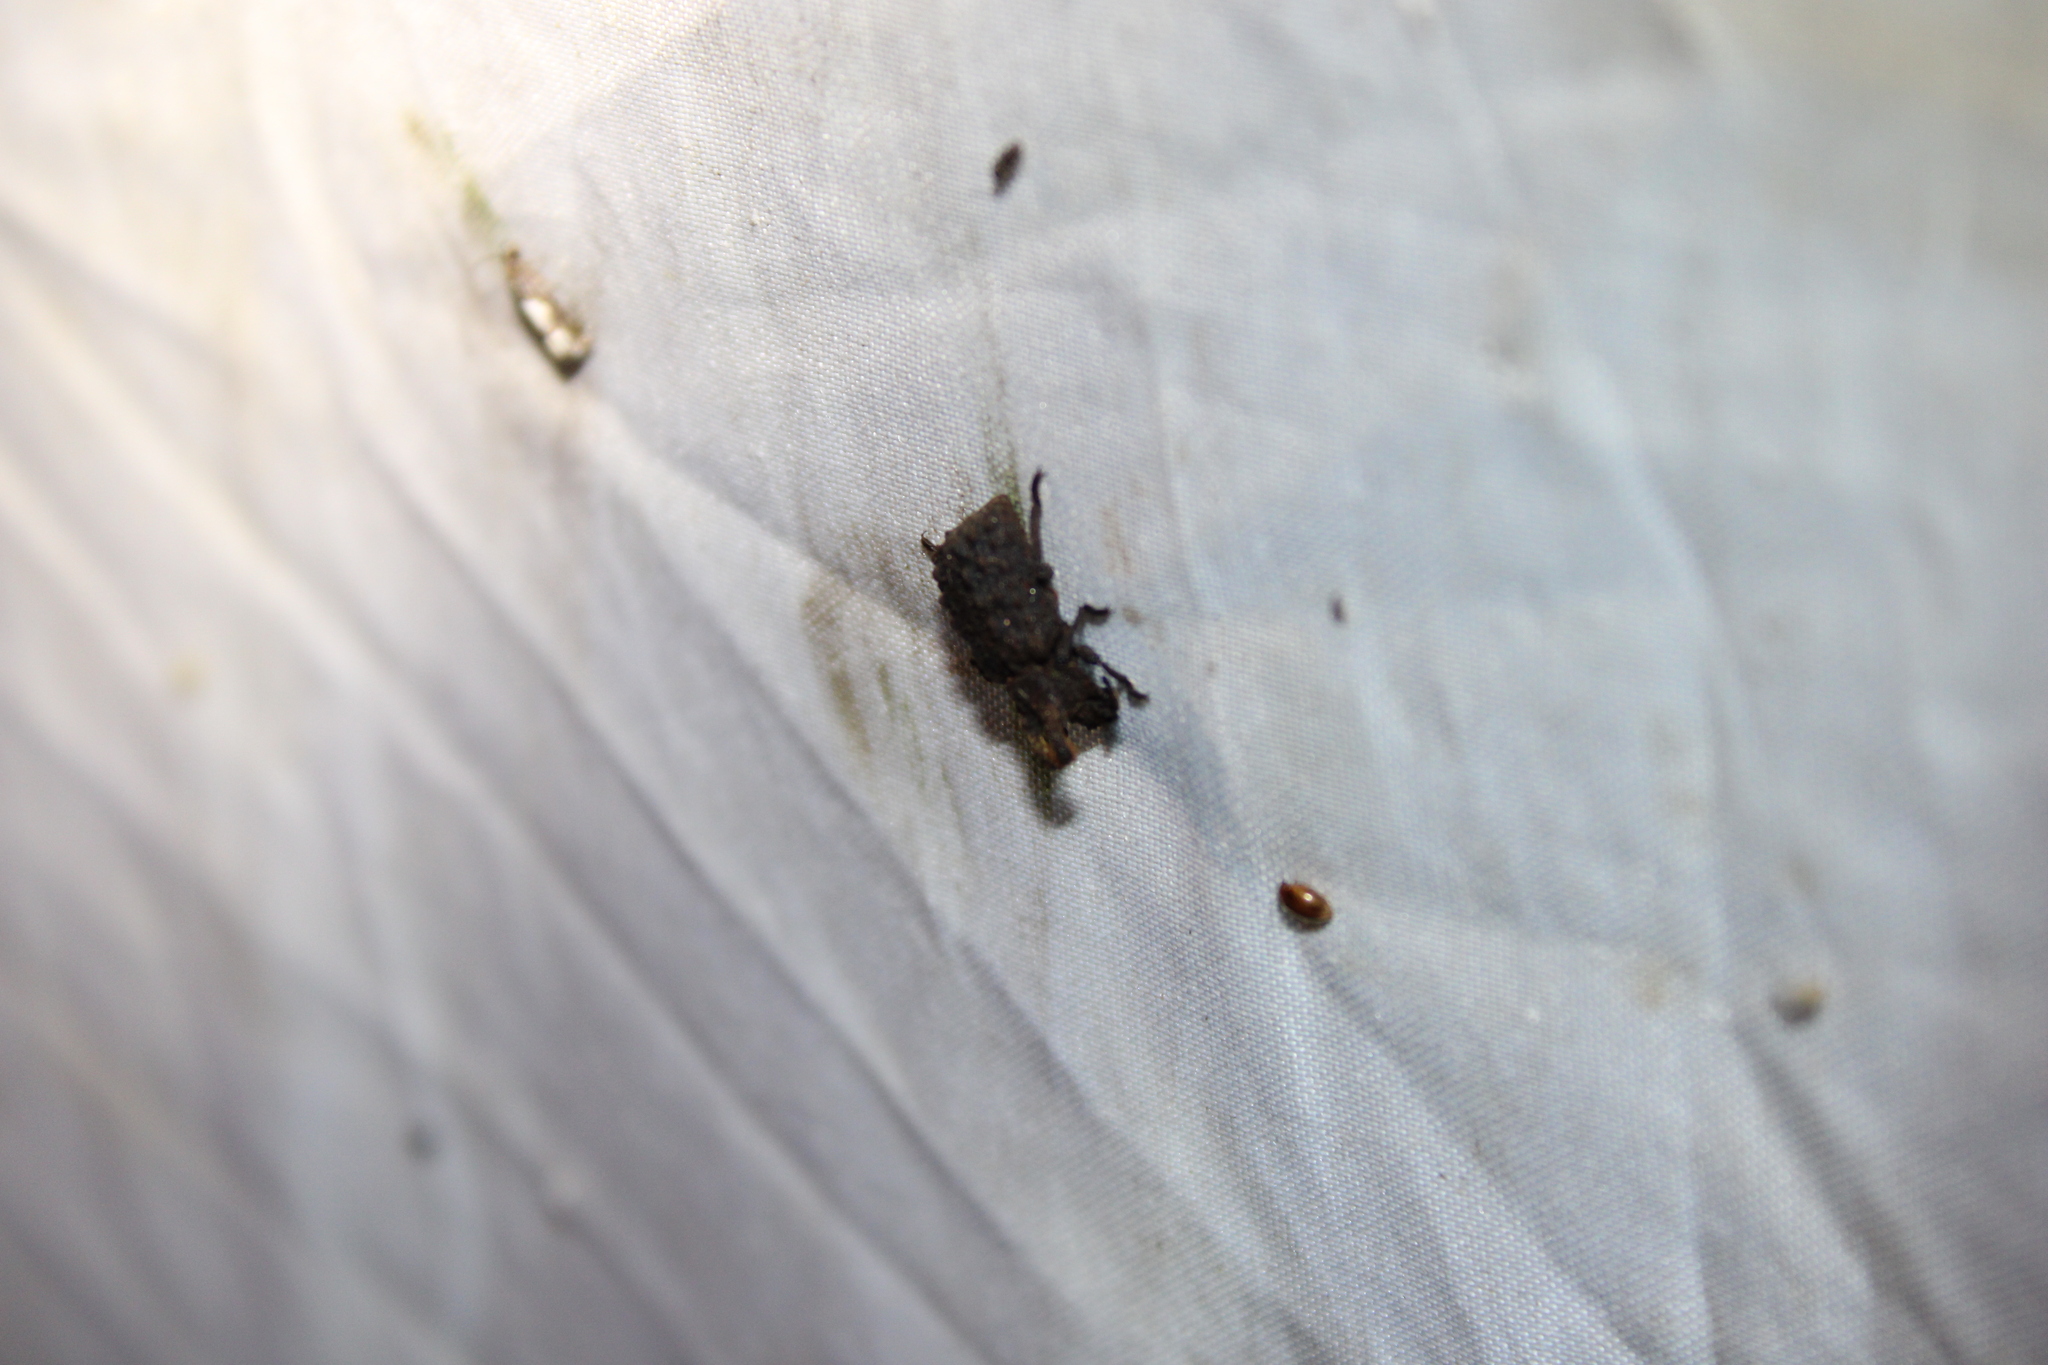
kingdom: Animalia
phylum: Arthropoda
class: Insecta
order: Coleoptera
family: Tenebrionidae
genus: Gnatocerus
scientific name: Gnatocerus cornutus
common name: Broad-horned flour beetle
